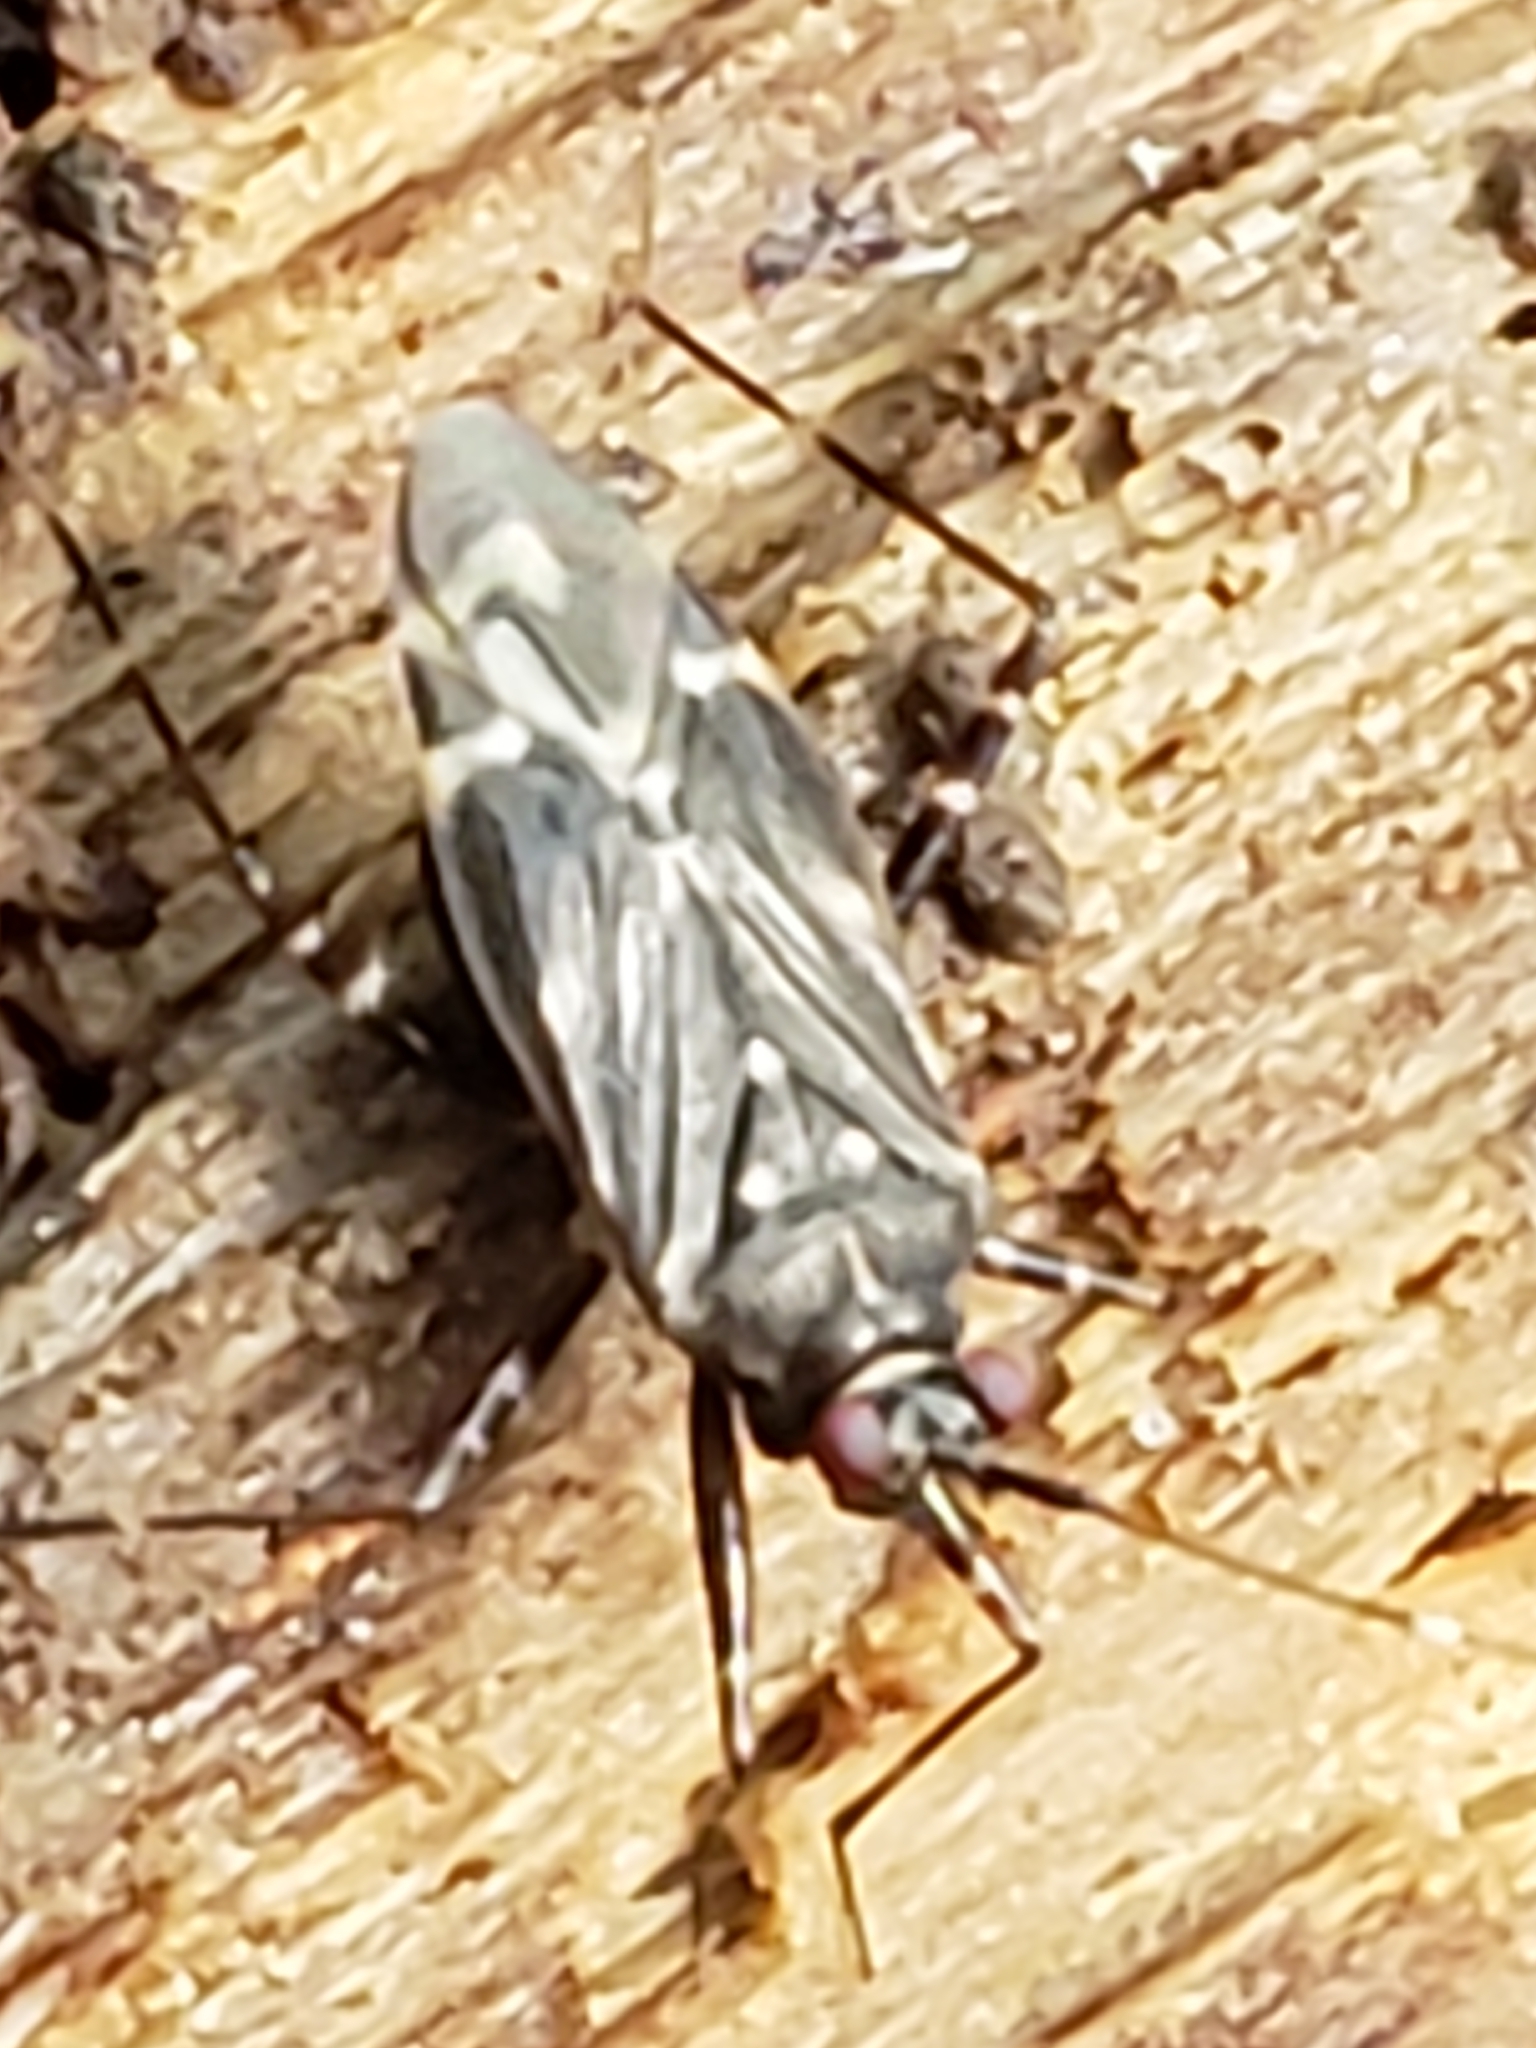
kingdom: Animalia
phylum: Arthropoda
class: Insecta
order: Hemiptera
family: Miridae
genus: Cylapus
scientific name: Cylapus tenuicornis
